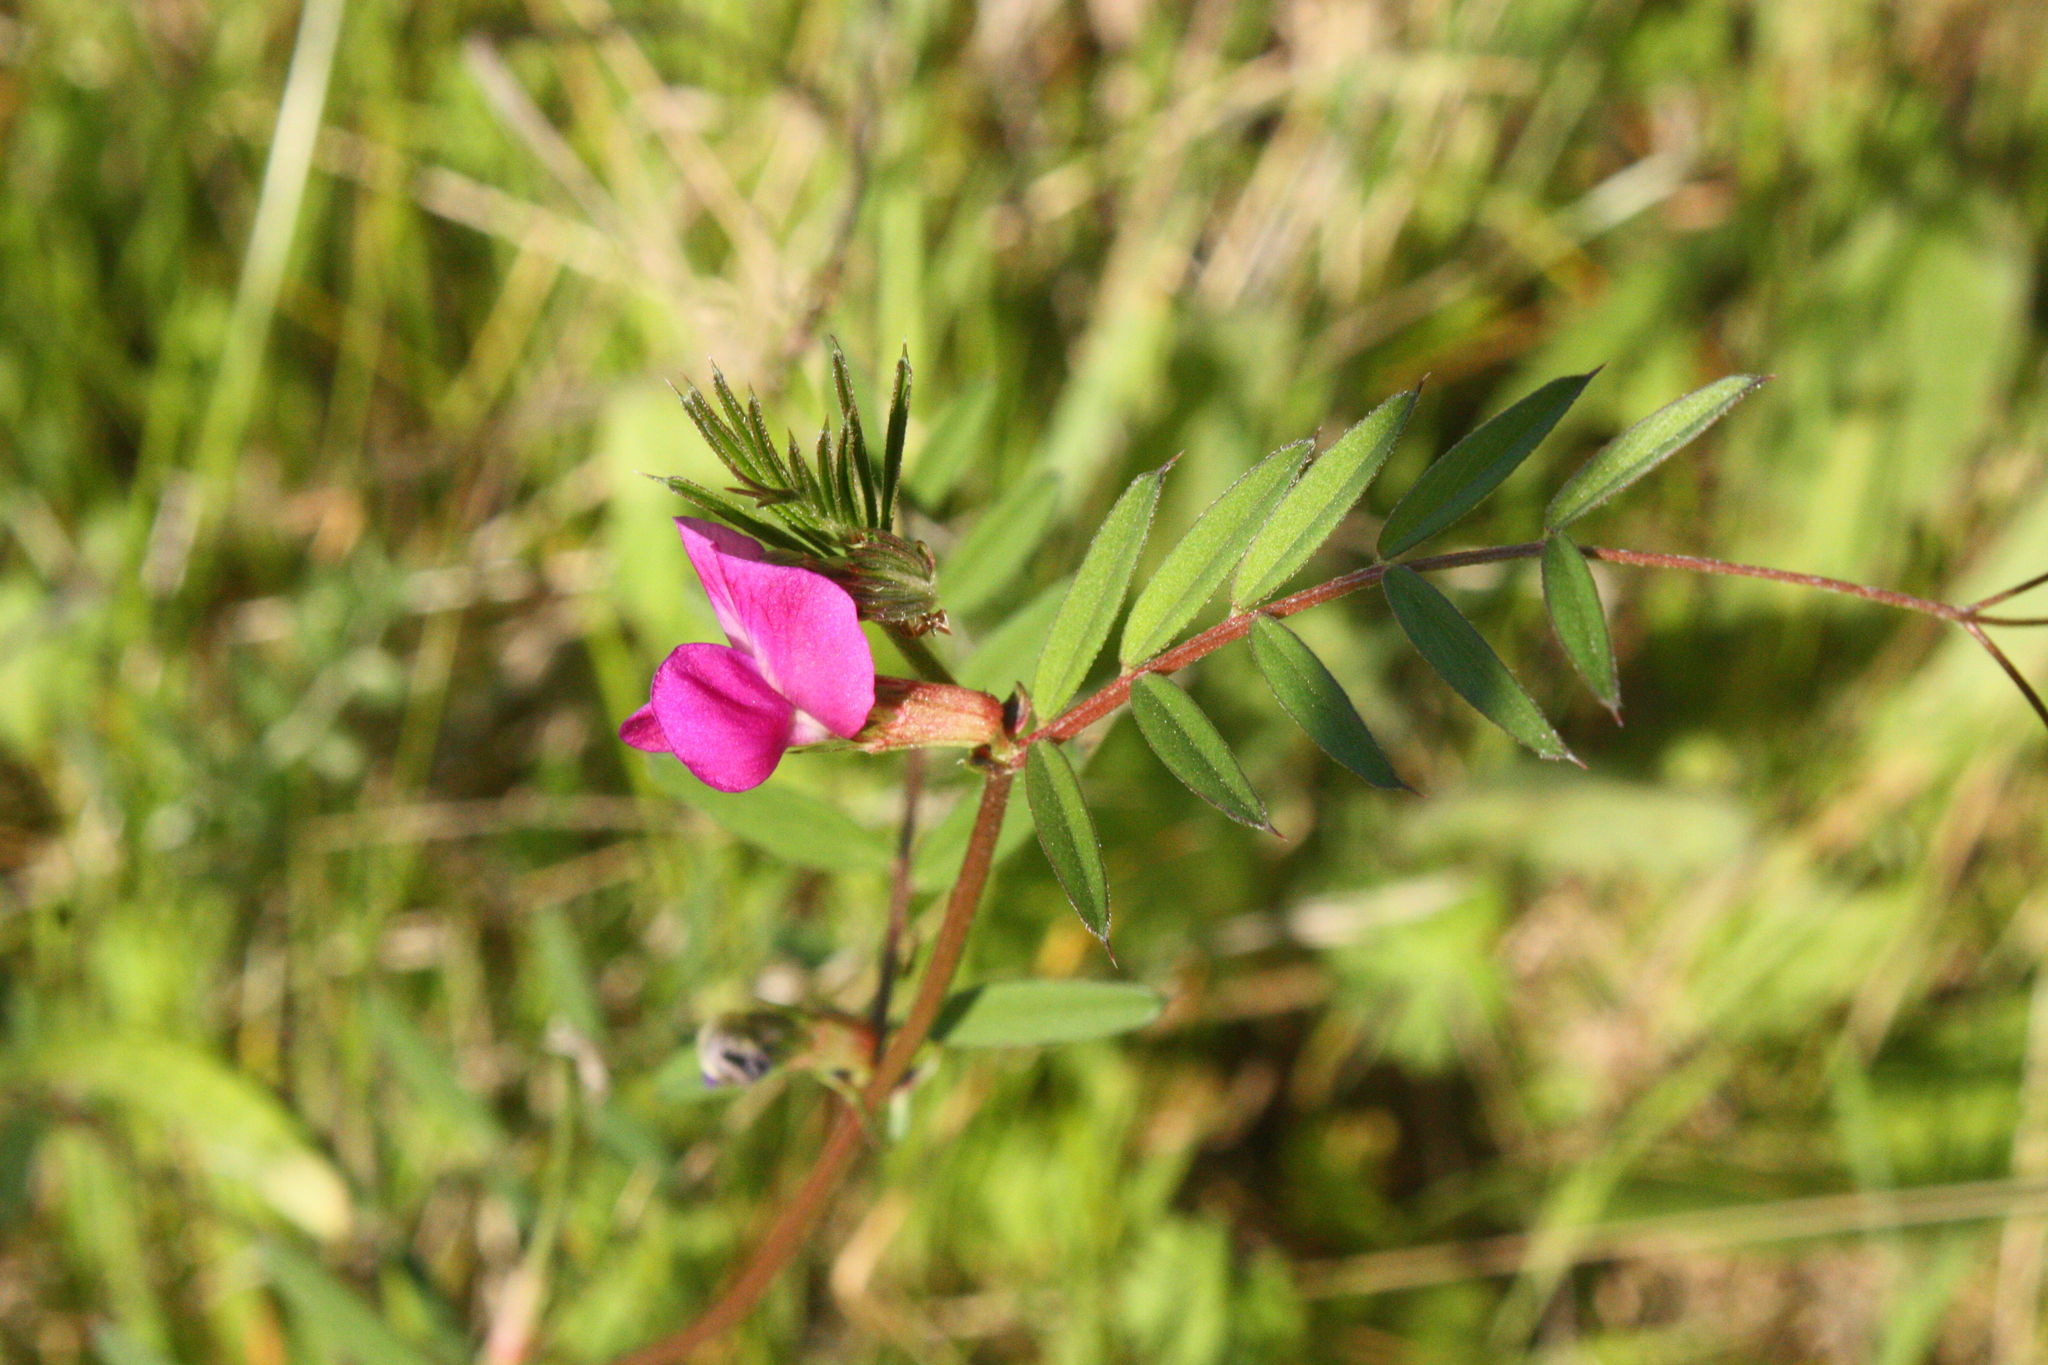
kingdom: Plantae
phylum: Tracheophyta
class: Magnoliopsida
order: Fabales
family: Fabaceae
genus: Vicia
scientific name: Vicia sativa
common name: Garden vetch
